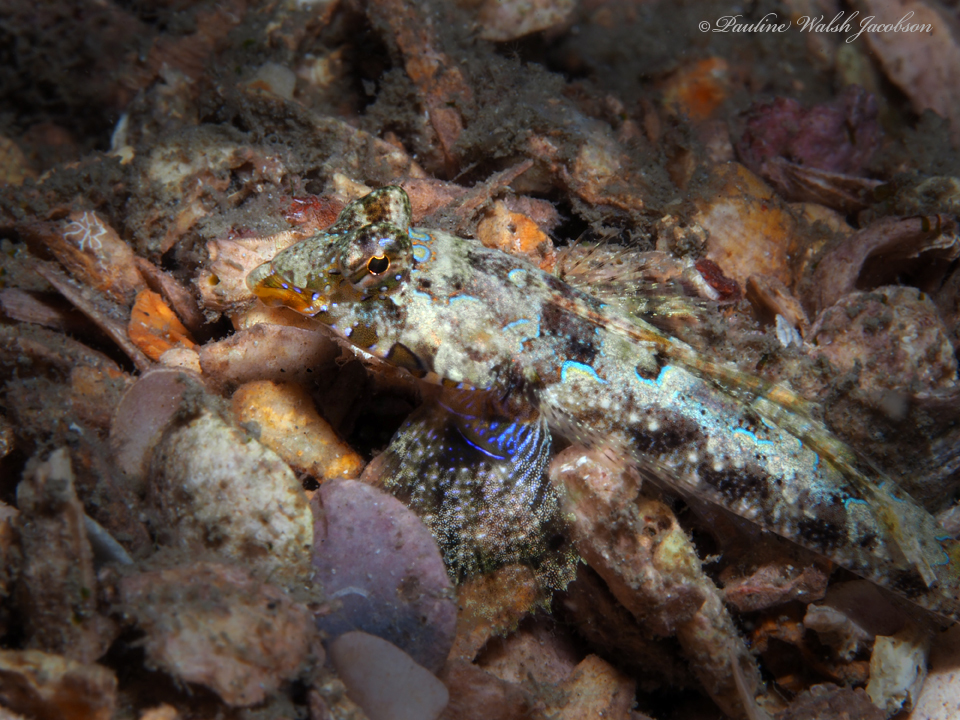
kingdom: Animalia
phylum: Chordata
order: Perciformes
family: Callionymidae
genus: Callionymus
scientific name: Callionymus bairdi
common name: Lancer dragonet
